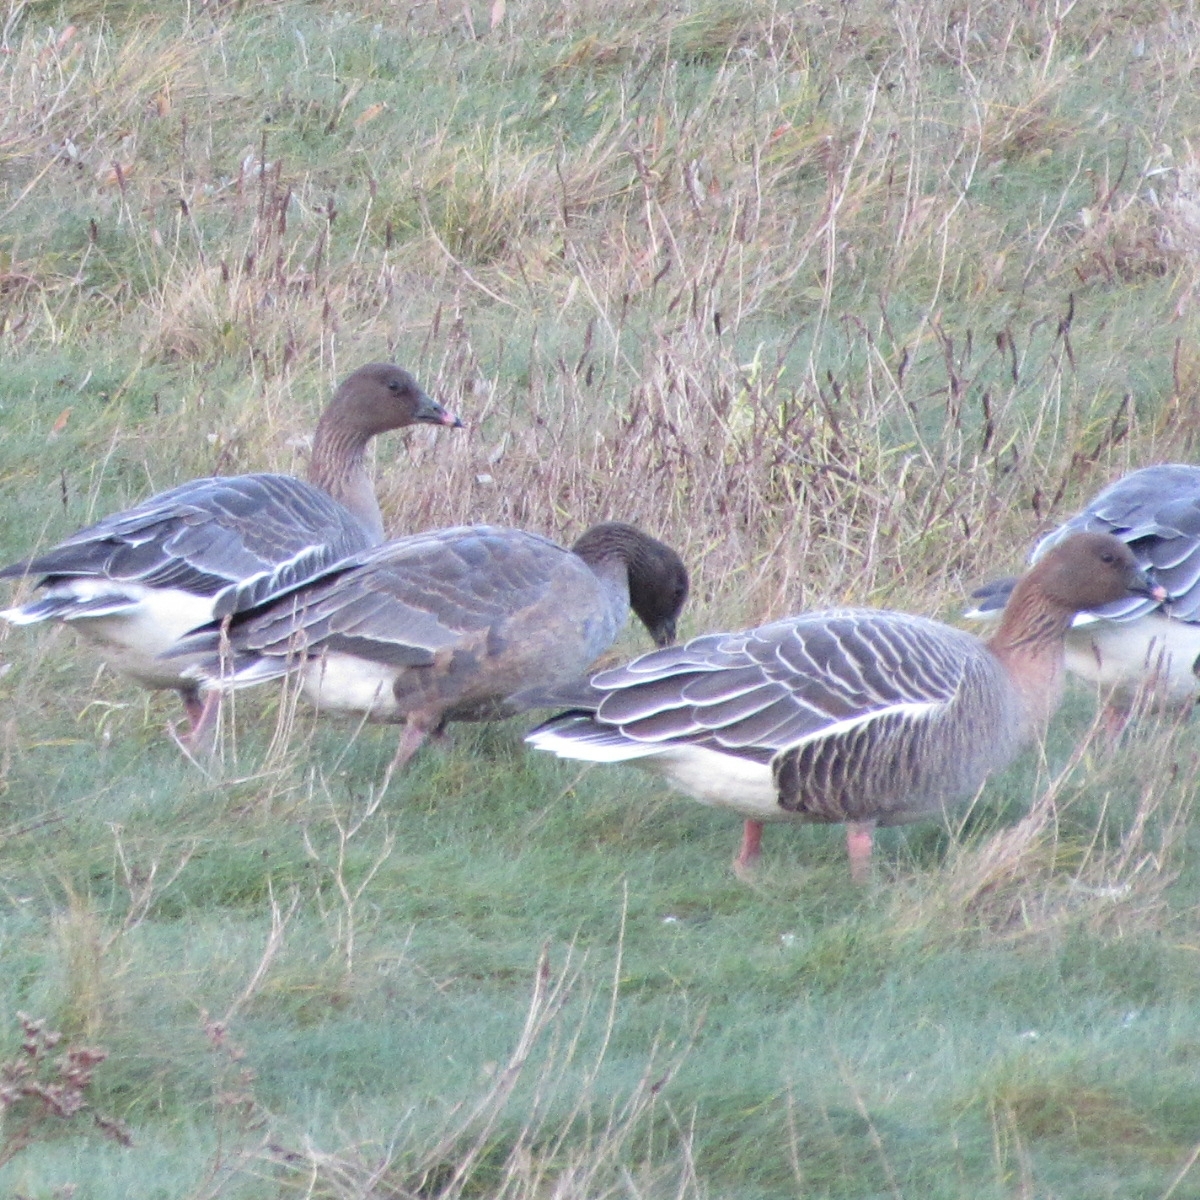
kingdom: Animalia
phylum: Chordata
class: Aves
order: Anseriformes
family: Anatidae
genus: Anser
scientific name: Anser brachyrhynchus
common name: Pink-footed goose
